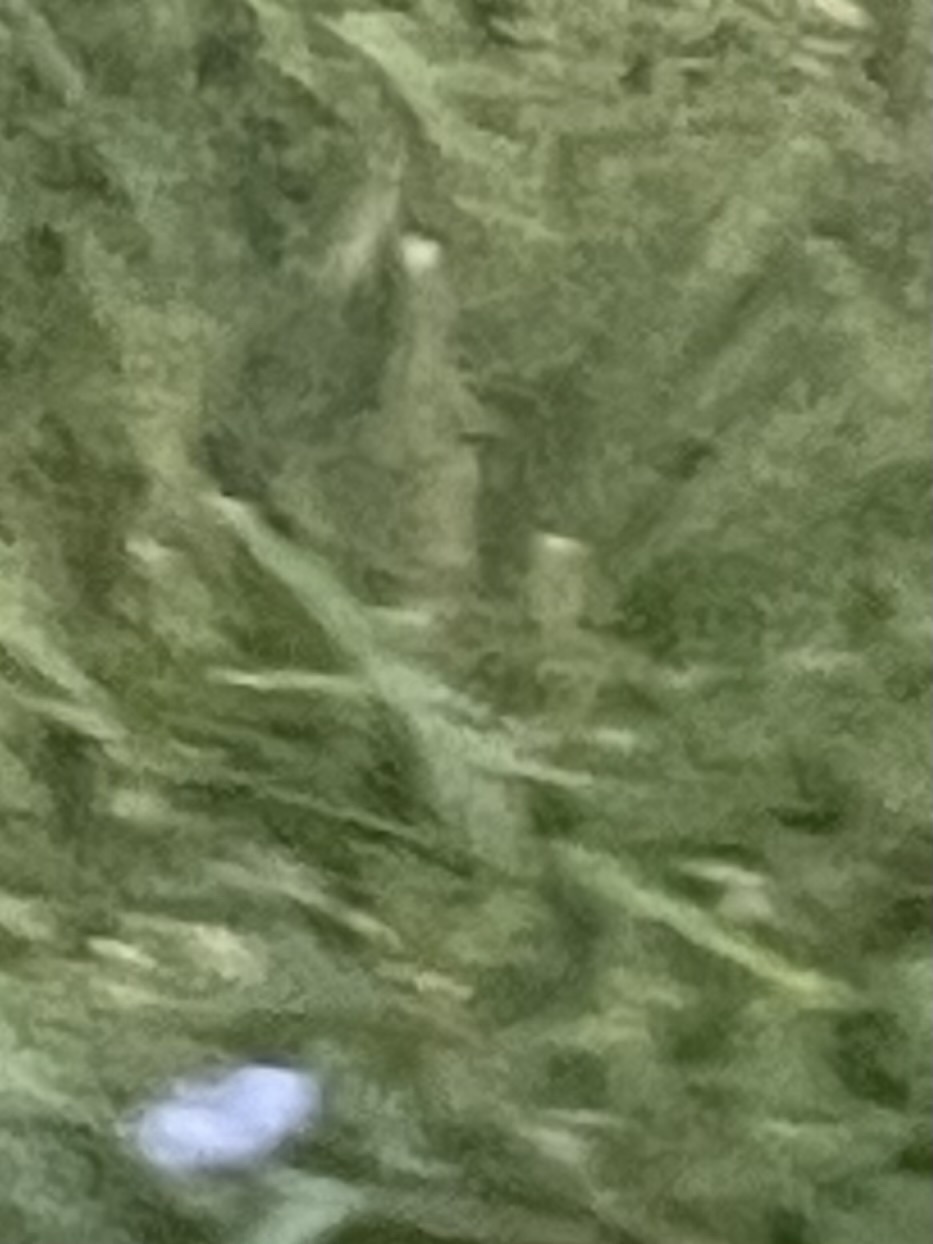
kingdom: Plantae
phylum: Tracheophyta
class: Magnoliopsida
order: Asterales
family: Asteraceae
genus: Cichorium
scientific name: Cichorium intybus
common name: Chicory
